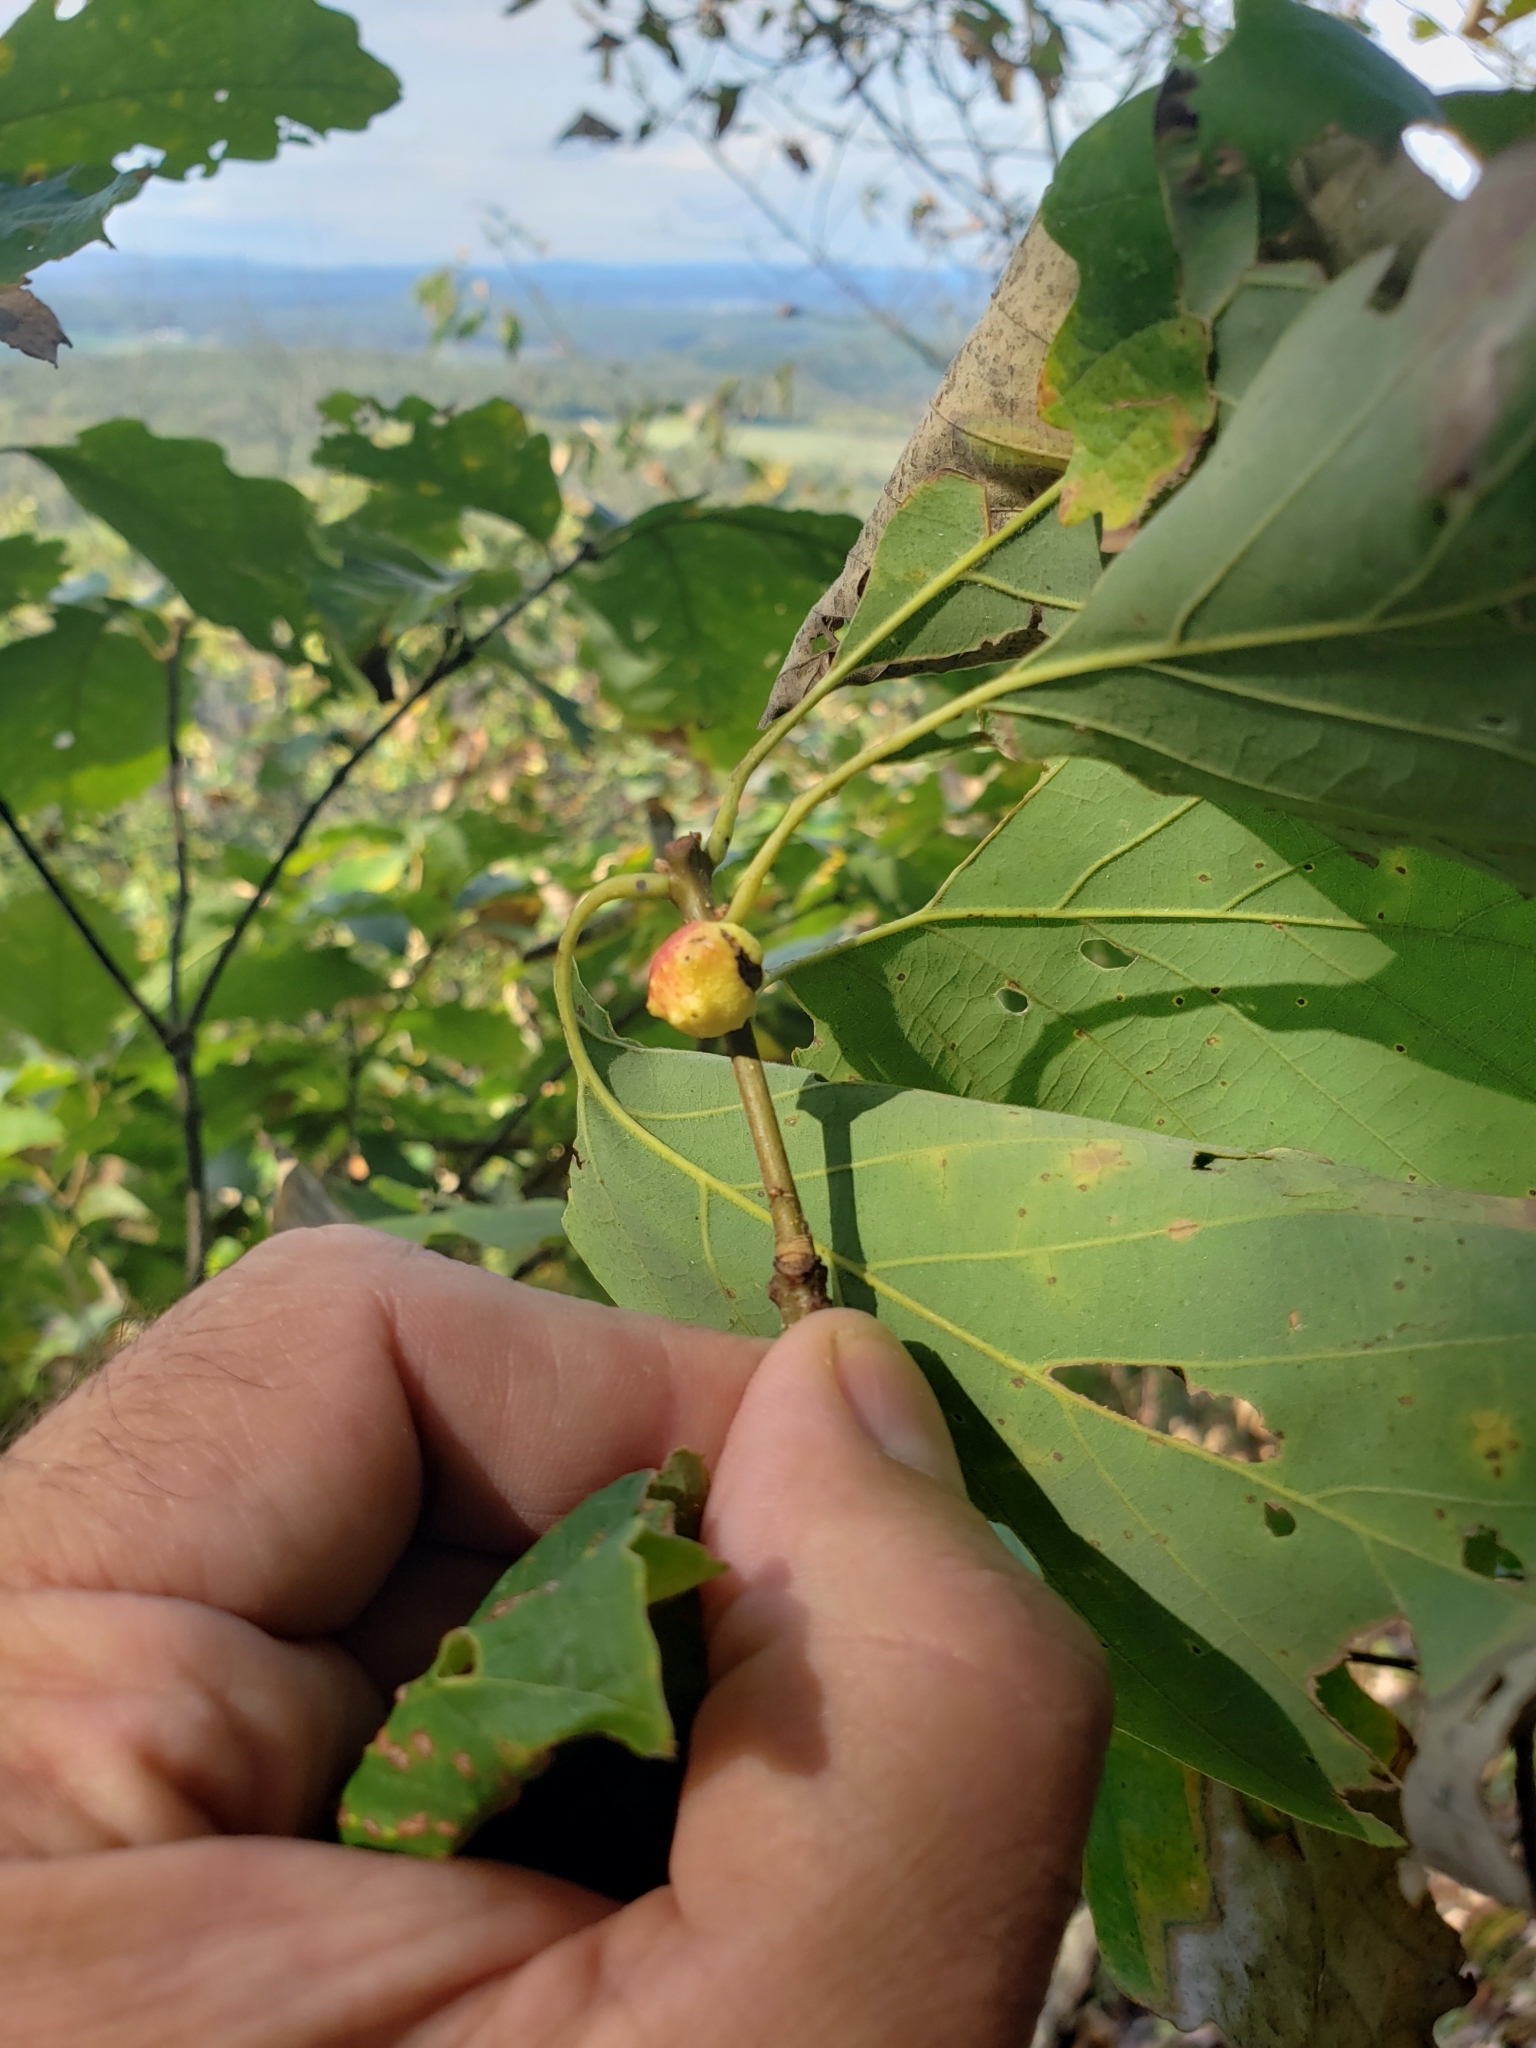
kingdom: Animalia
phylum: Arthropoda
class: Insecta
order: Hymenoptera
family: Cynipidae
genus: Disholcaspis
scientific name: Disholcaspis quercusglobulus
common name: Round bullet gall wasp
